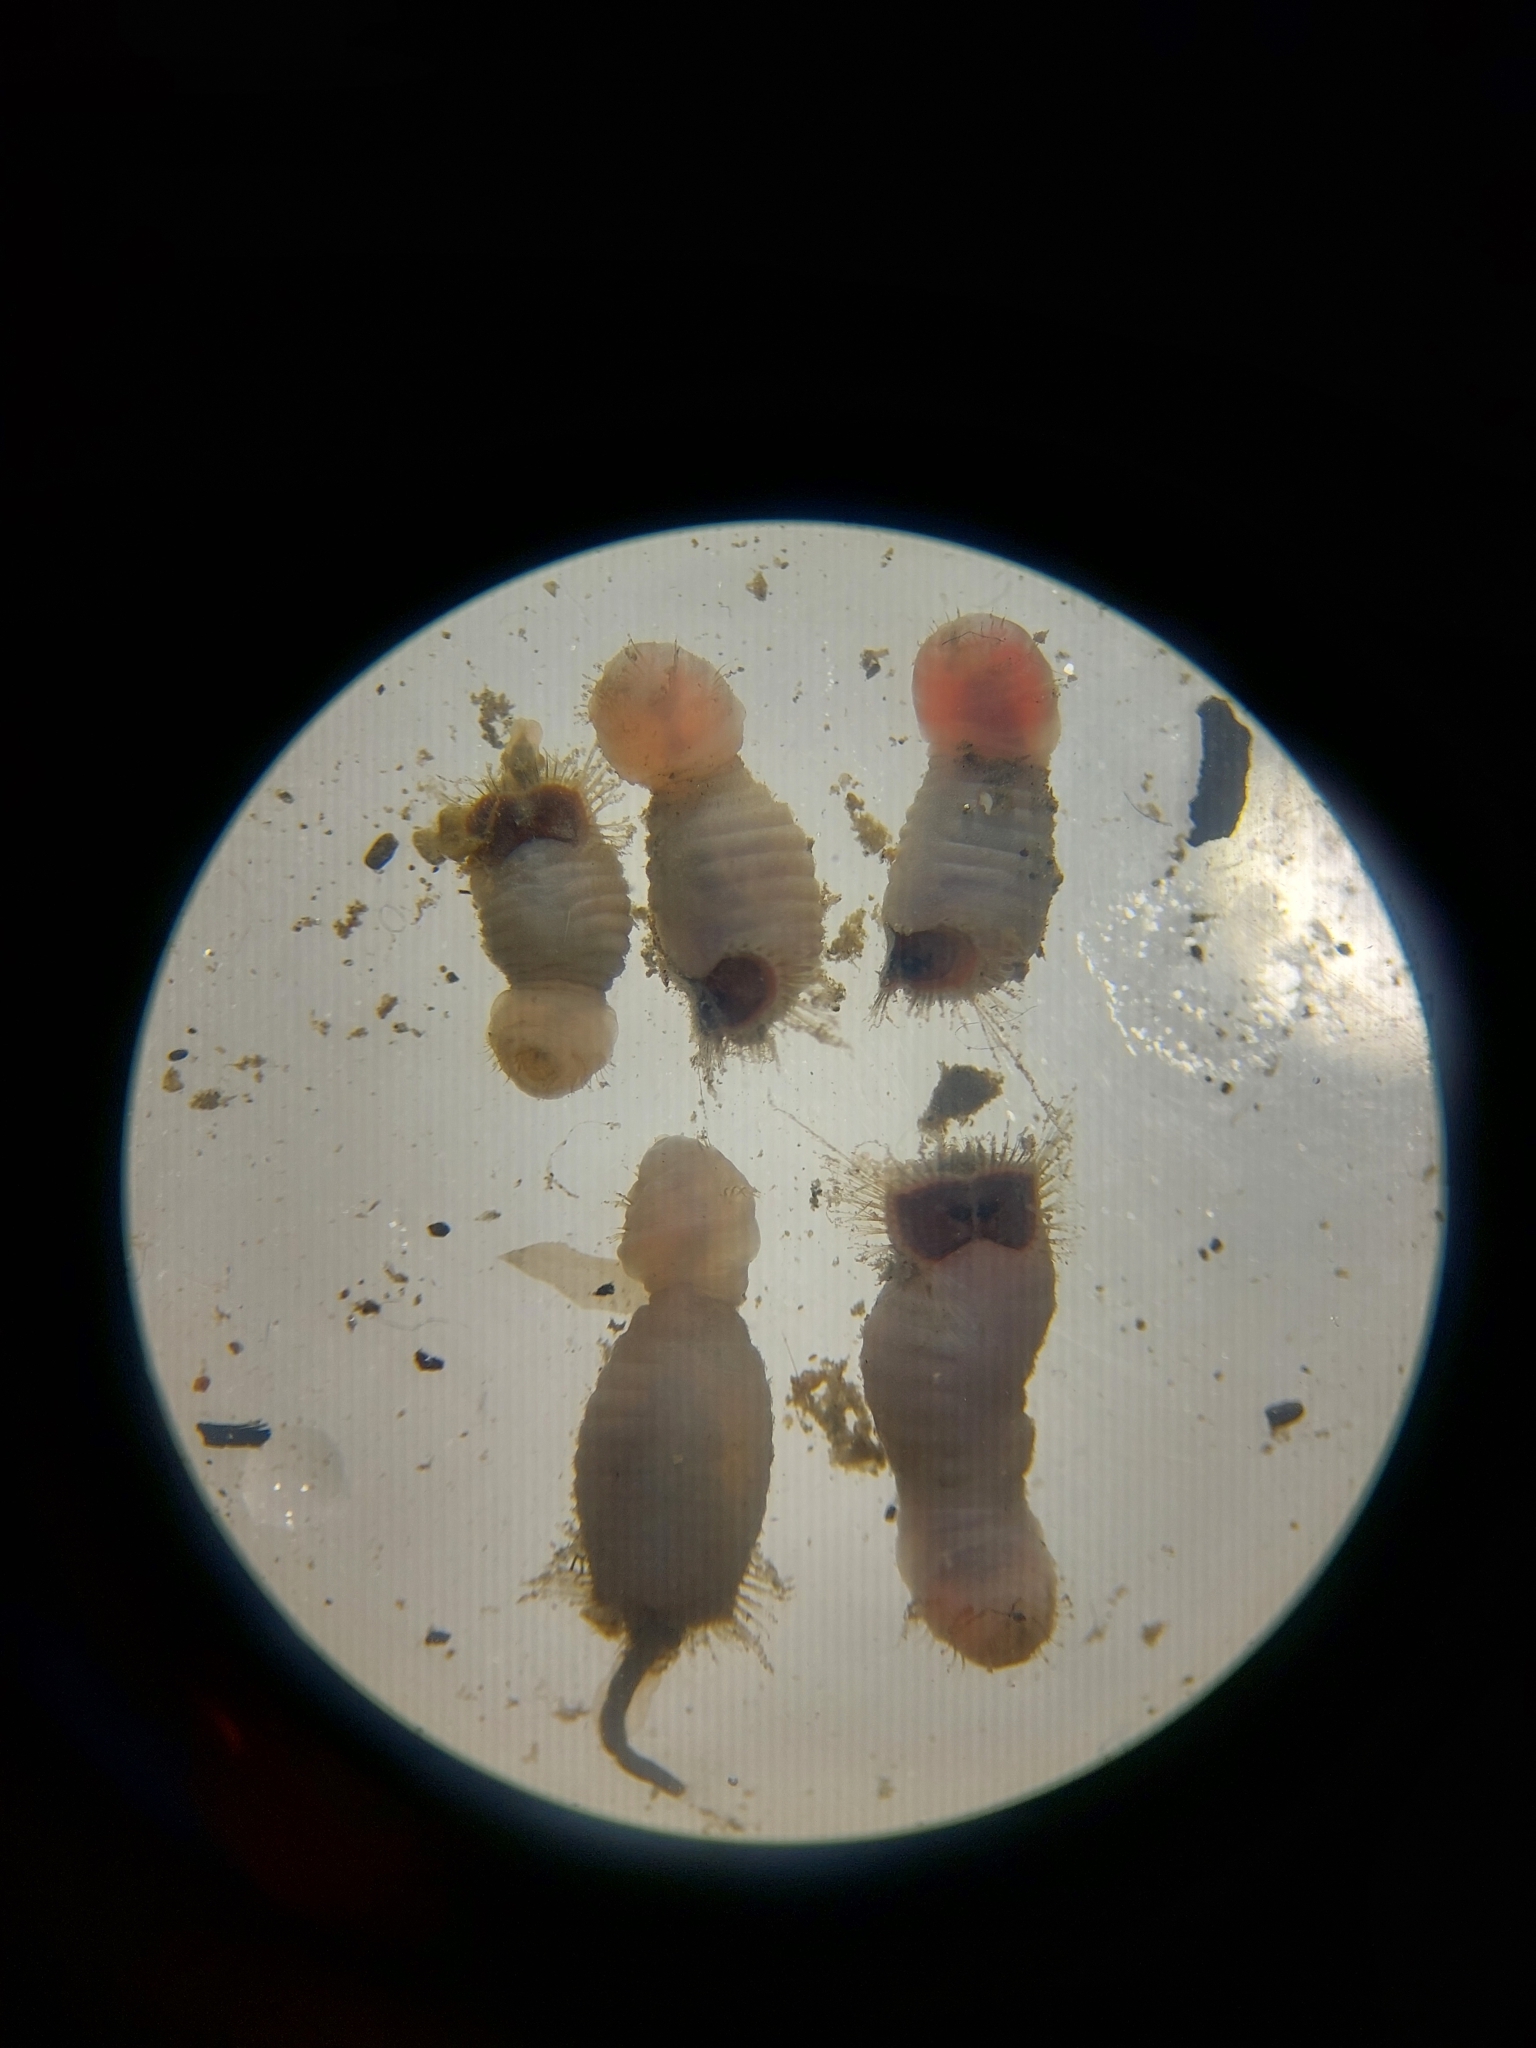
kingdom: Animalia
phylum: Annelida
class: Polychaeta
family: Sternaspidae
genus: Sternaspis
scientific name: Sternaspis scutata
